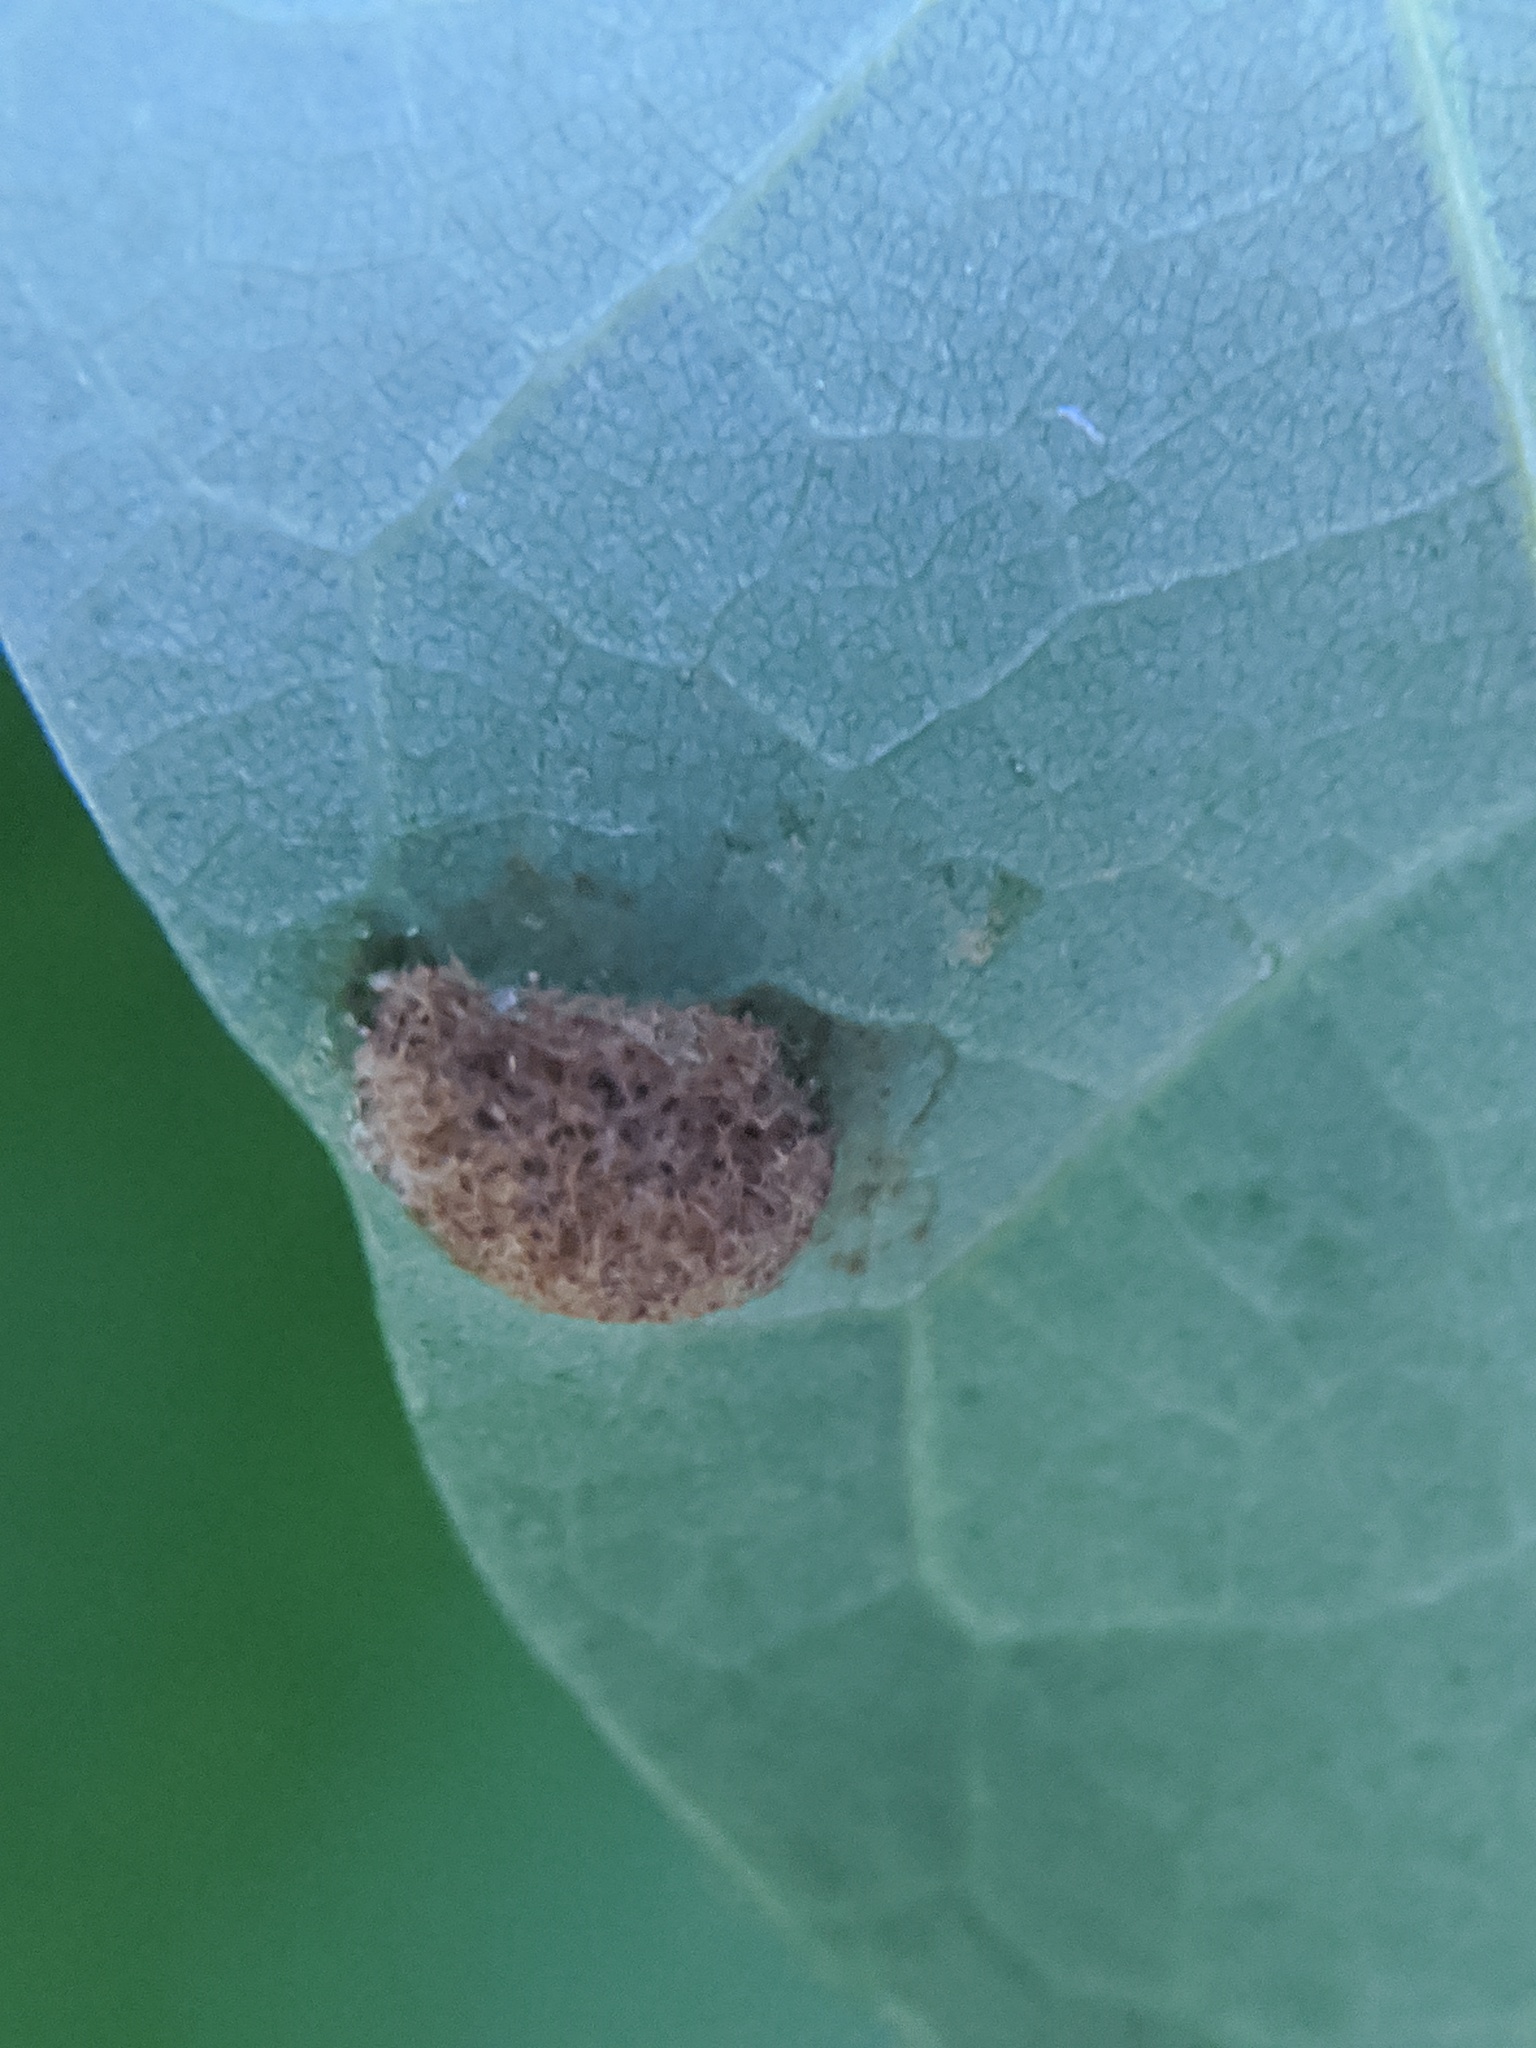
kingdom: Animalia
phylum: Arthropoda
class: Arachnida
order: Trombidiformes
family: Eriophyidae
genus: Aceria
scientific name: Aceria
